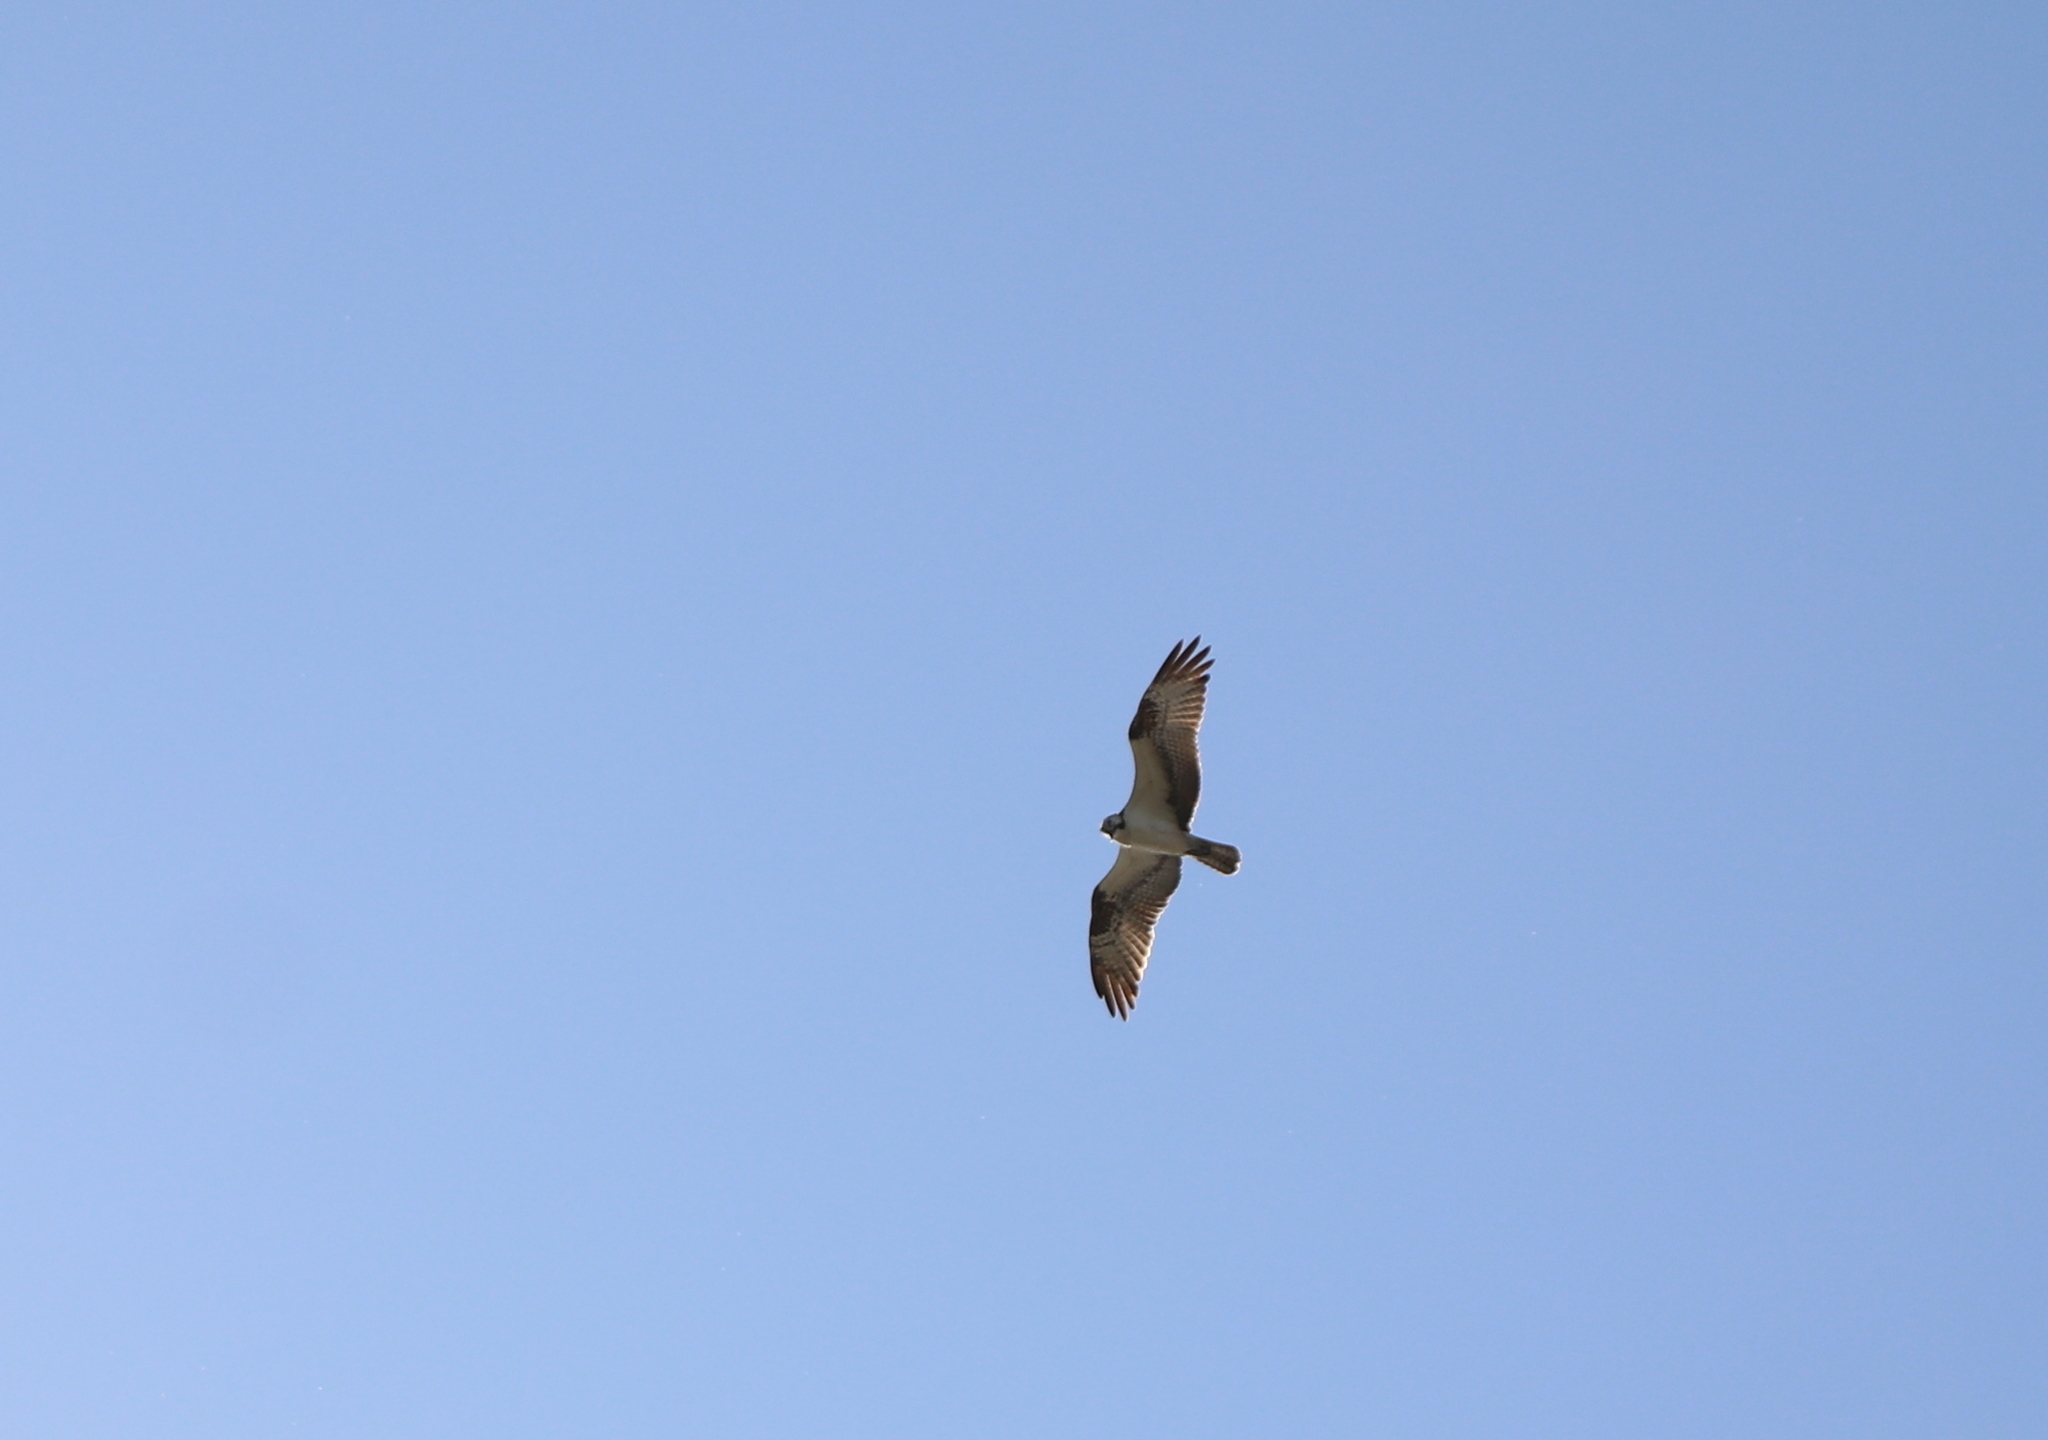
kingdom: Animalia
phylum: Chordata
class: Aves
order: Accipitriformes
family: Pandionidae
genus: Pandion
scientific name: Pandion haliaetus
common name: Osprey
